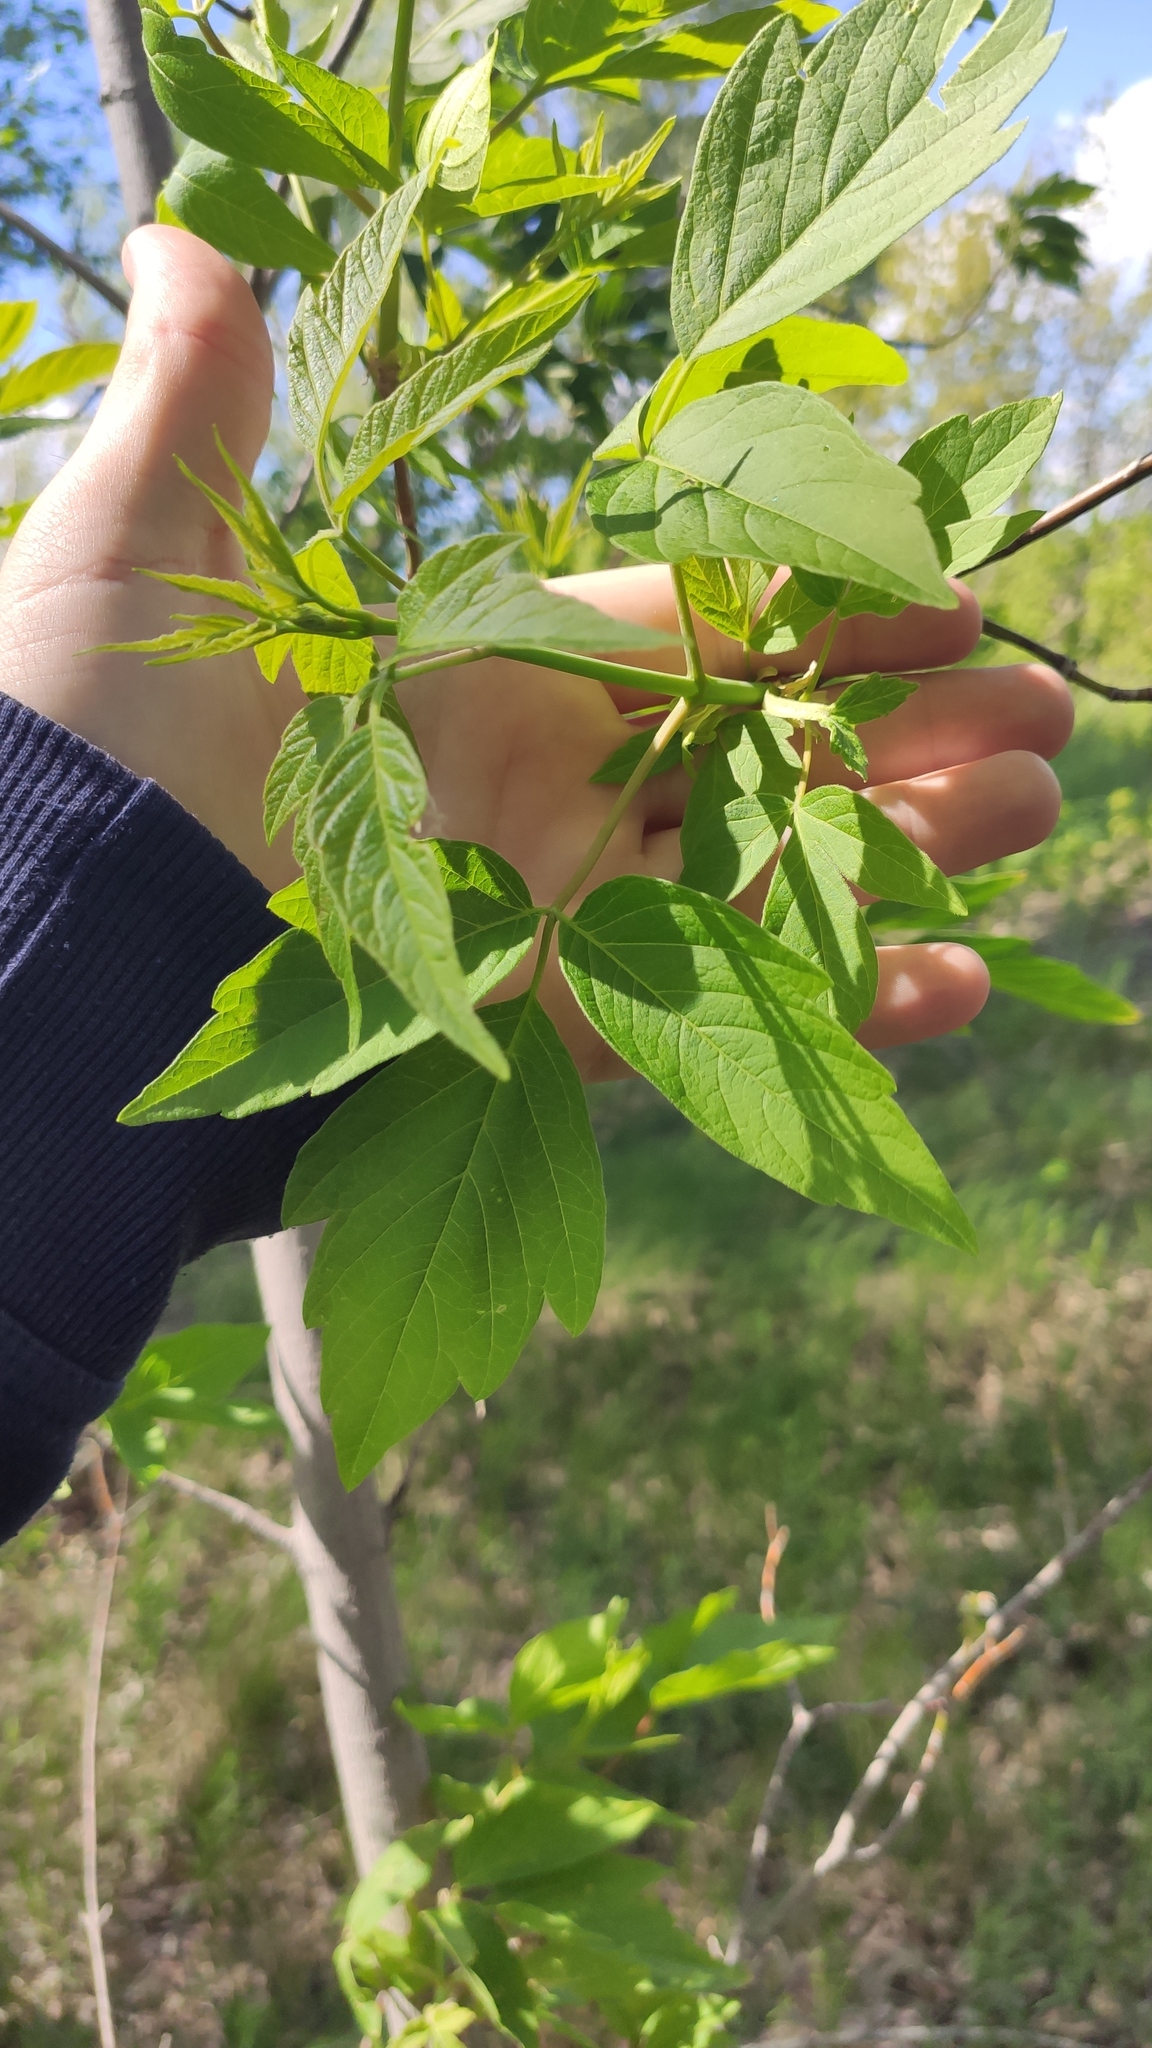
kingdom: Plantae
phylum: Tracheophyta
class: Magnoliopsida
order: Sapindales
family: Sapindaceae
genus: Acer
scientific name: Acer negundo
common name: Ashleaf maple
